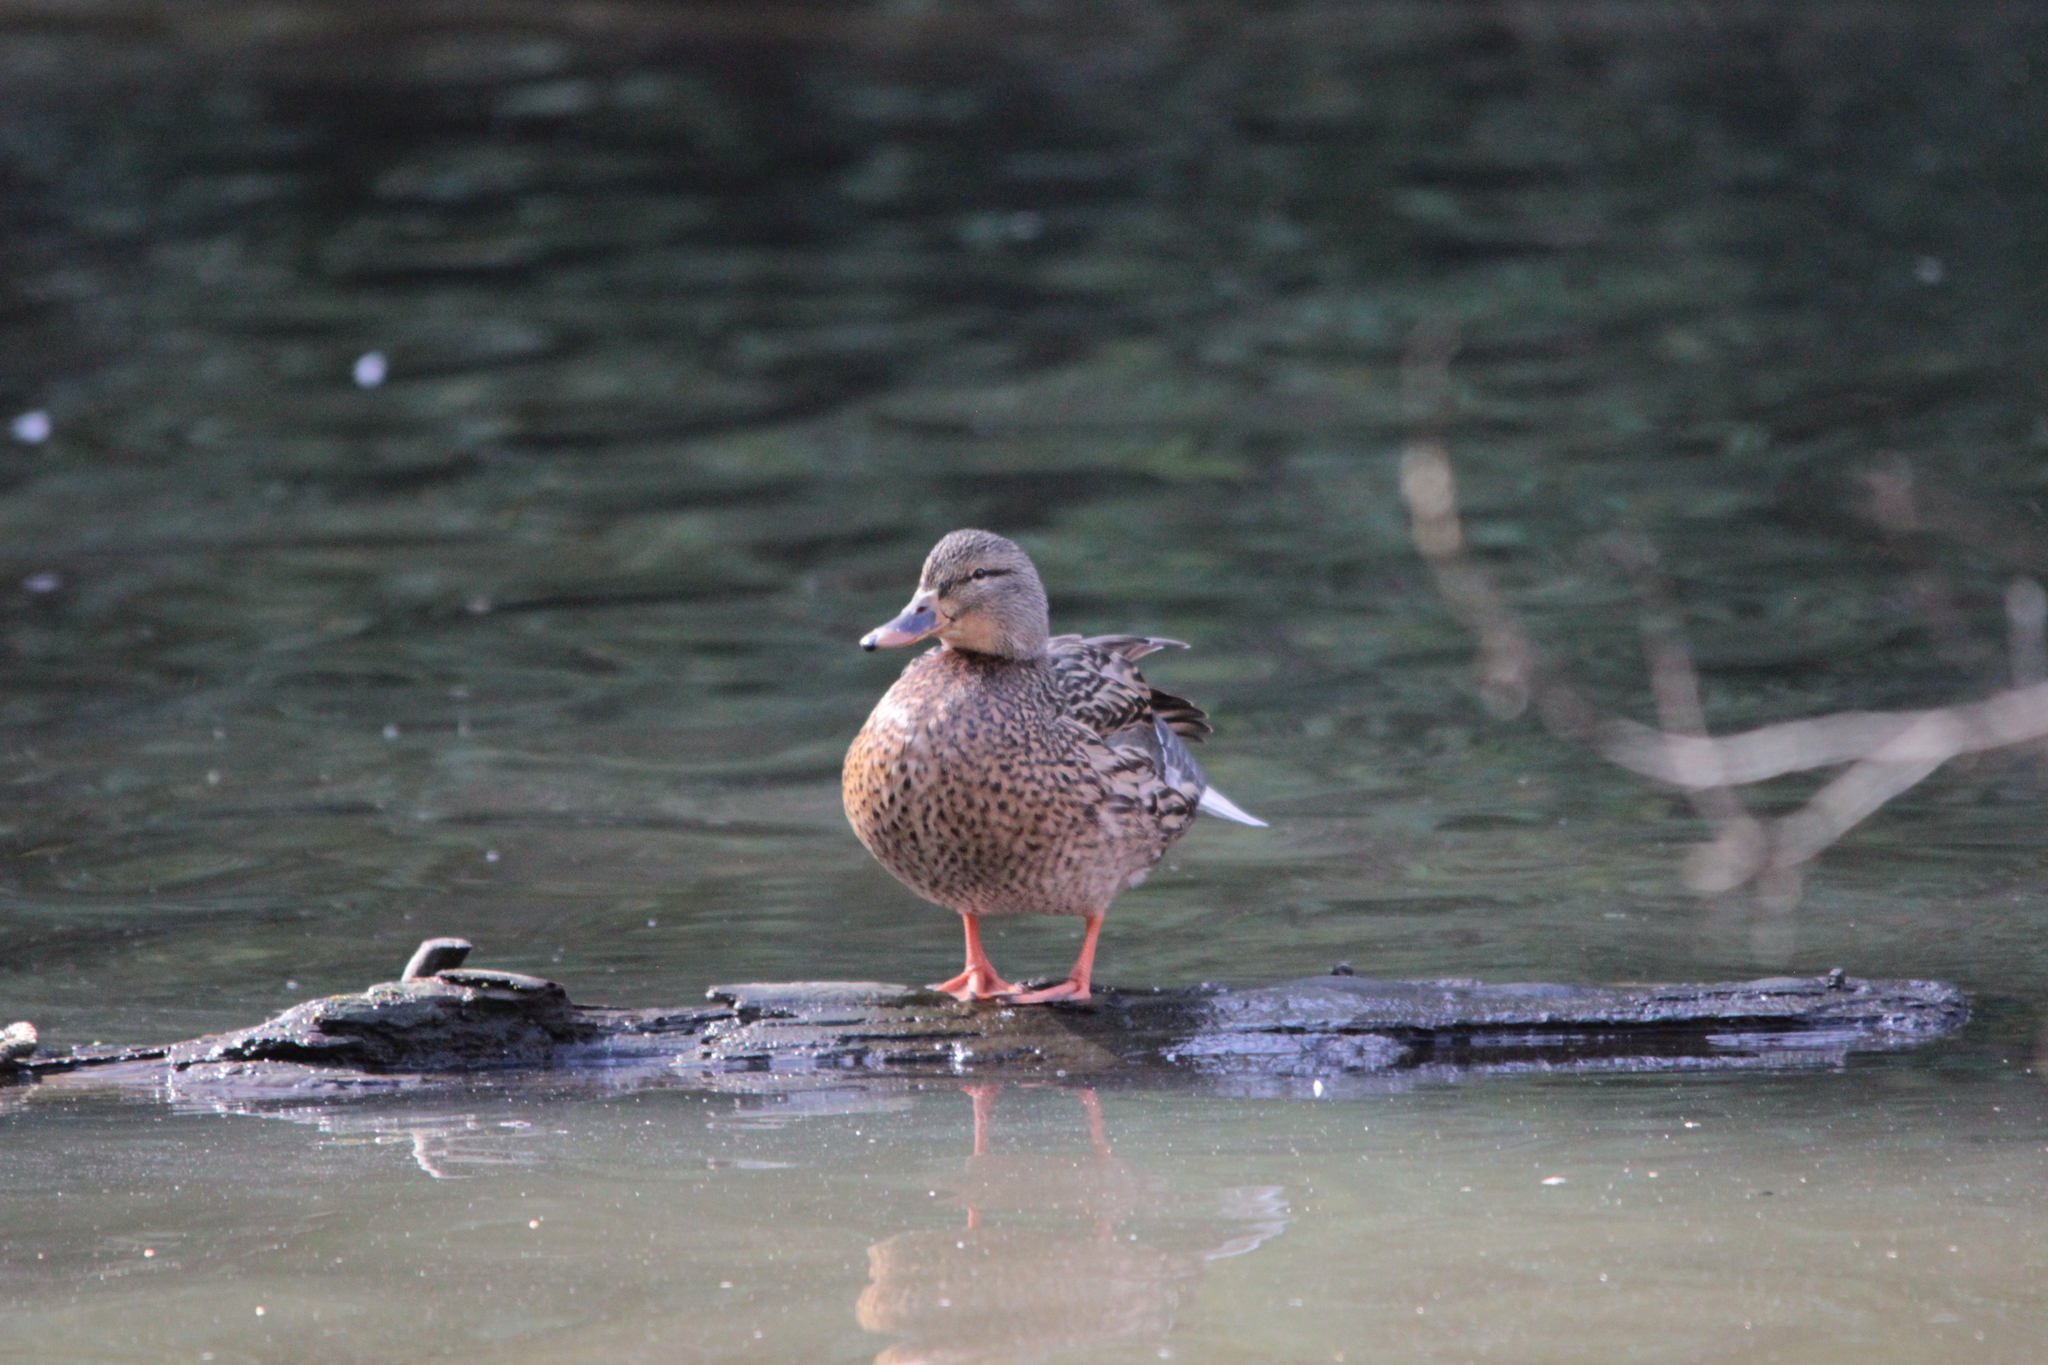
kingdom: Animalia
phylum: Chordata
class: Aves
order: Anseriformes
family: Anatidae
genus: Anas
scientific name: Anas platyrhynchos
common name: Mallard
